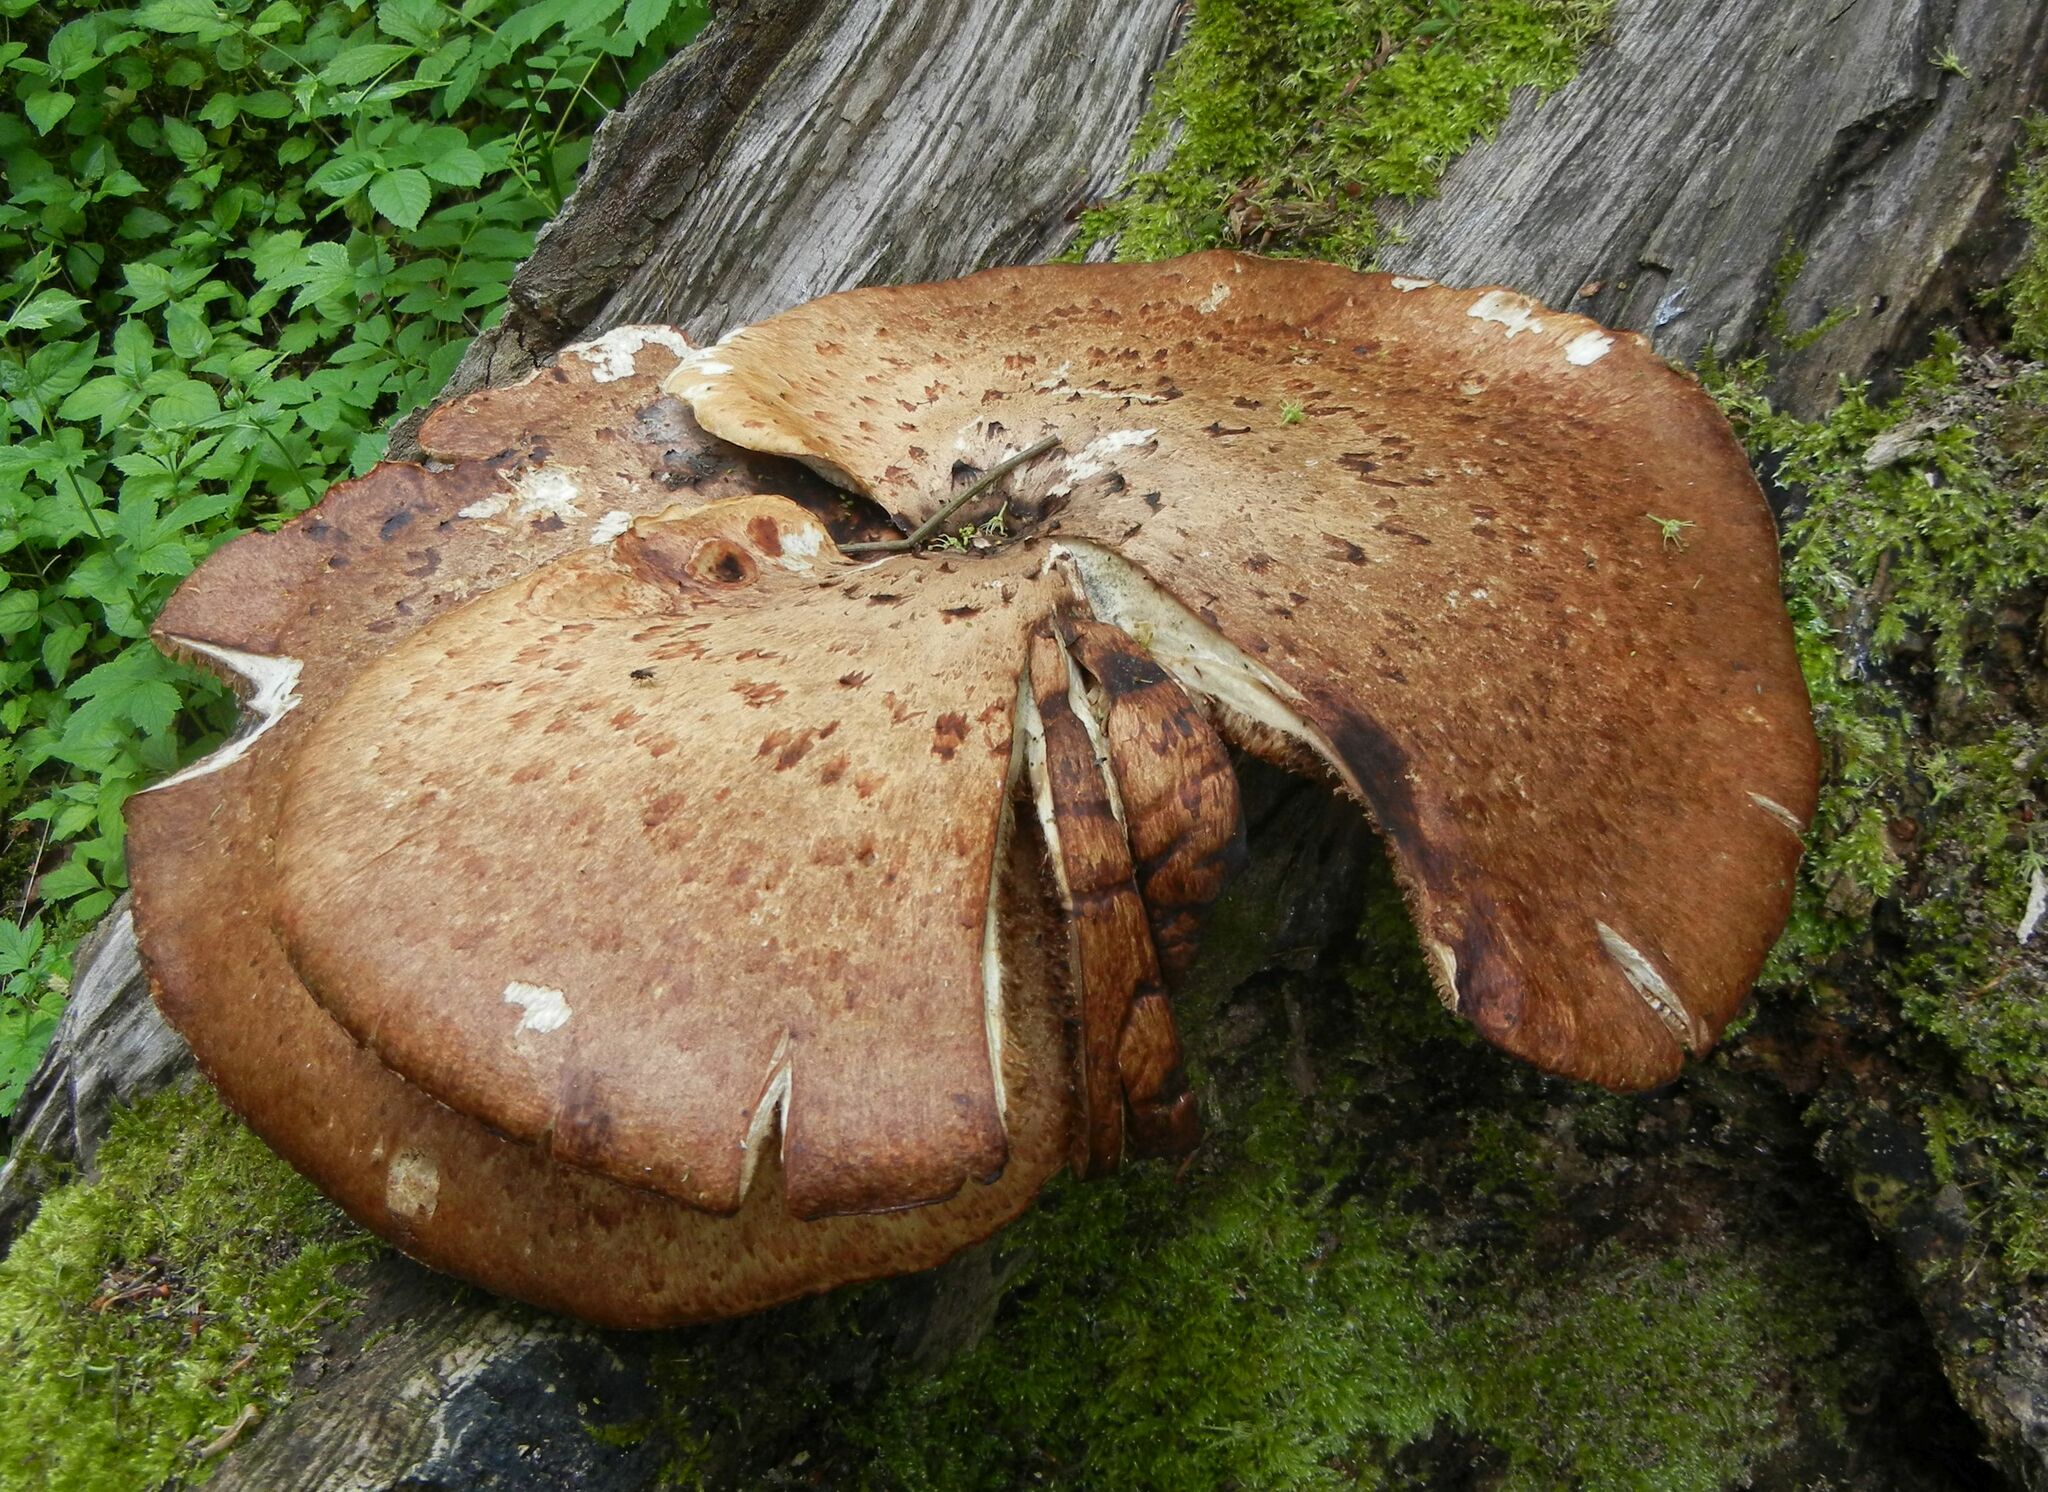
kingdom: Fungi
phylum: Basidiomycota
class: Agaricomycetes
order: Polyporales
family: Polyporaceae
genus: Cerioporus
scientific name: Cerioporus squamosus
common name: Dryad's saddle
